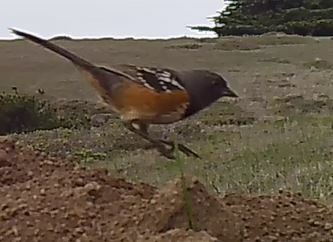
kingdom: Animalia
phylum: Chordata
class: Aves
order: Passeriformes
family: Passerellidae
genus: Pipilo
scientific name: Pipilo maculatus
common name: Spotted towhee
